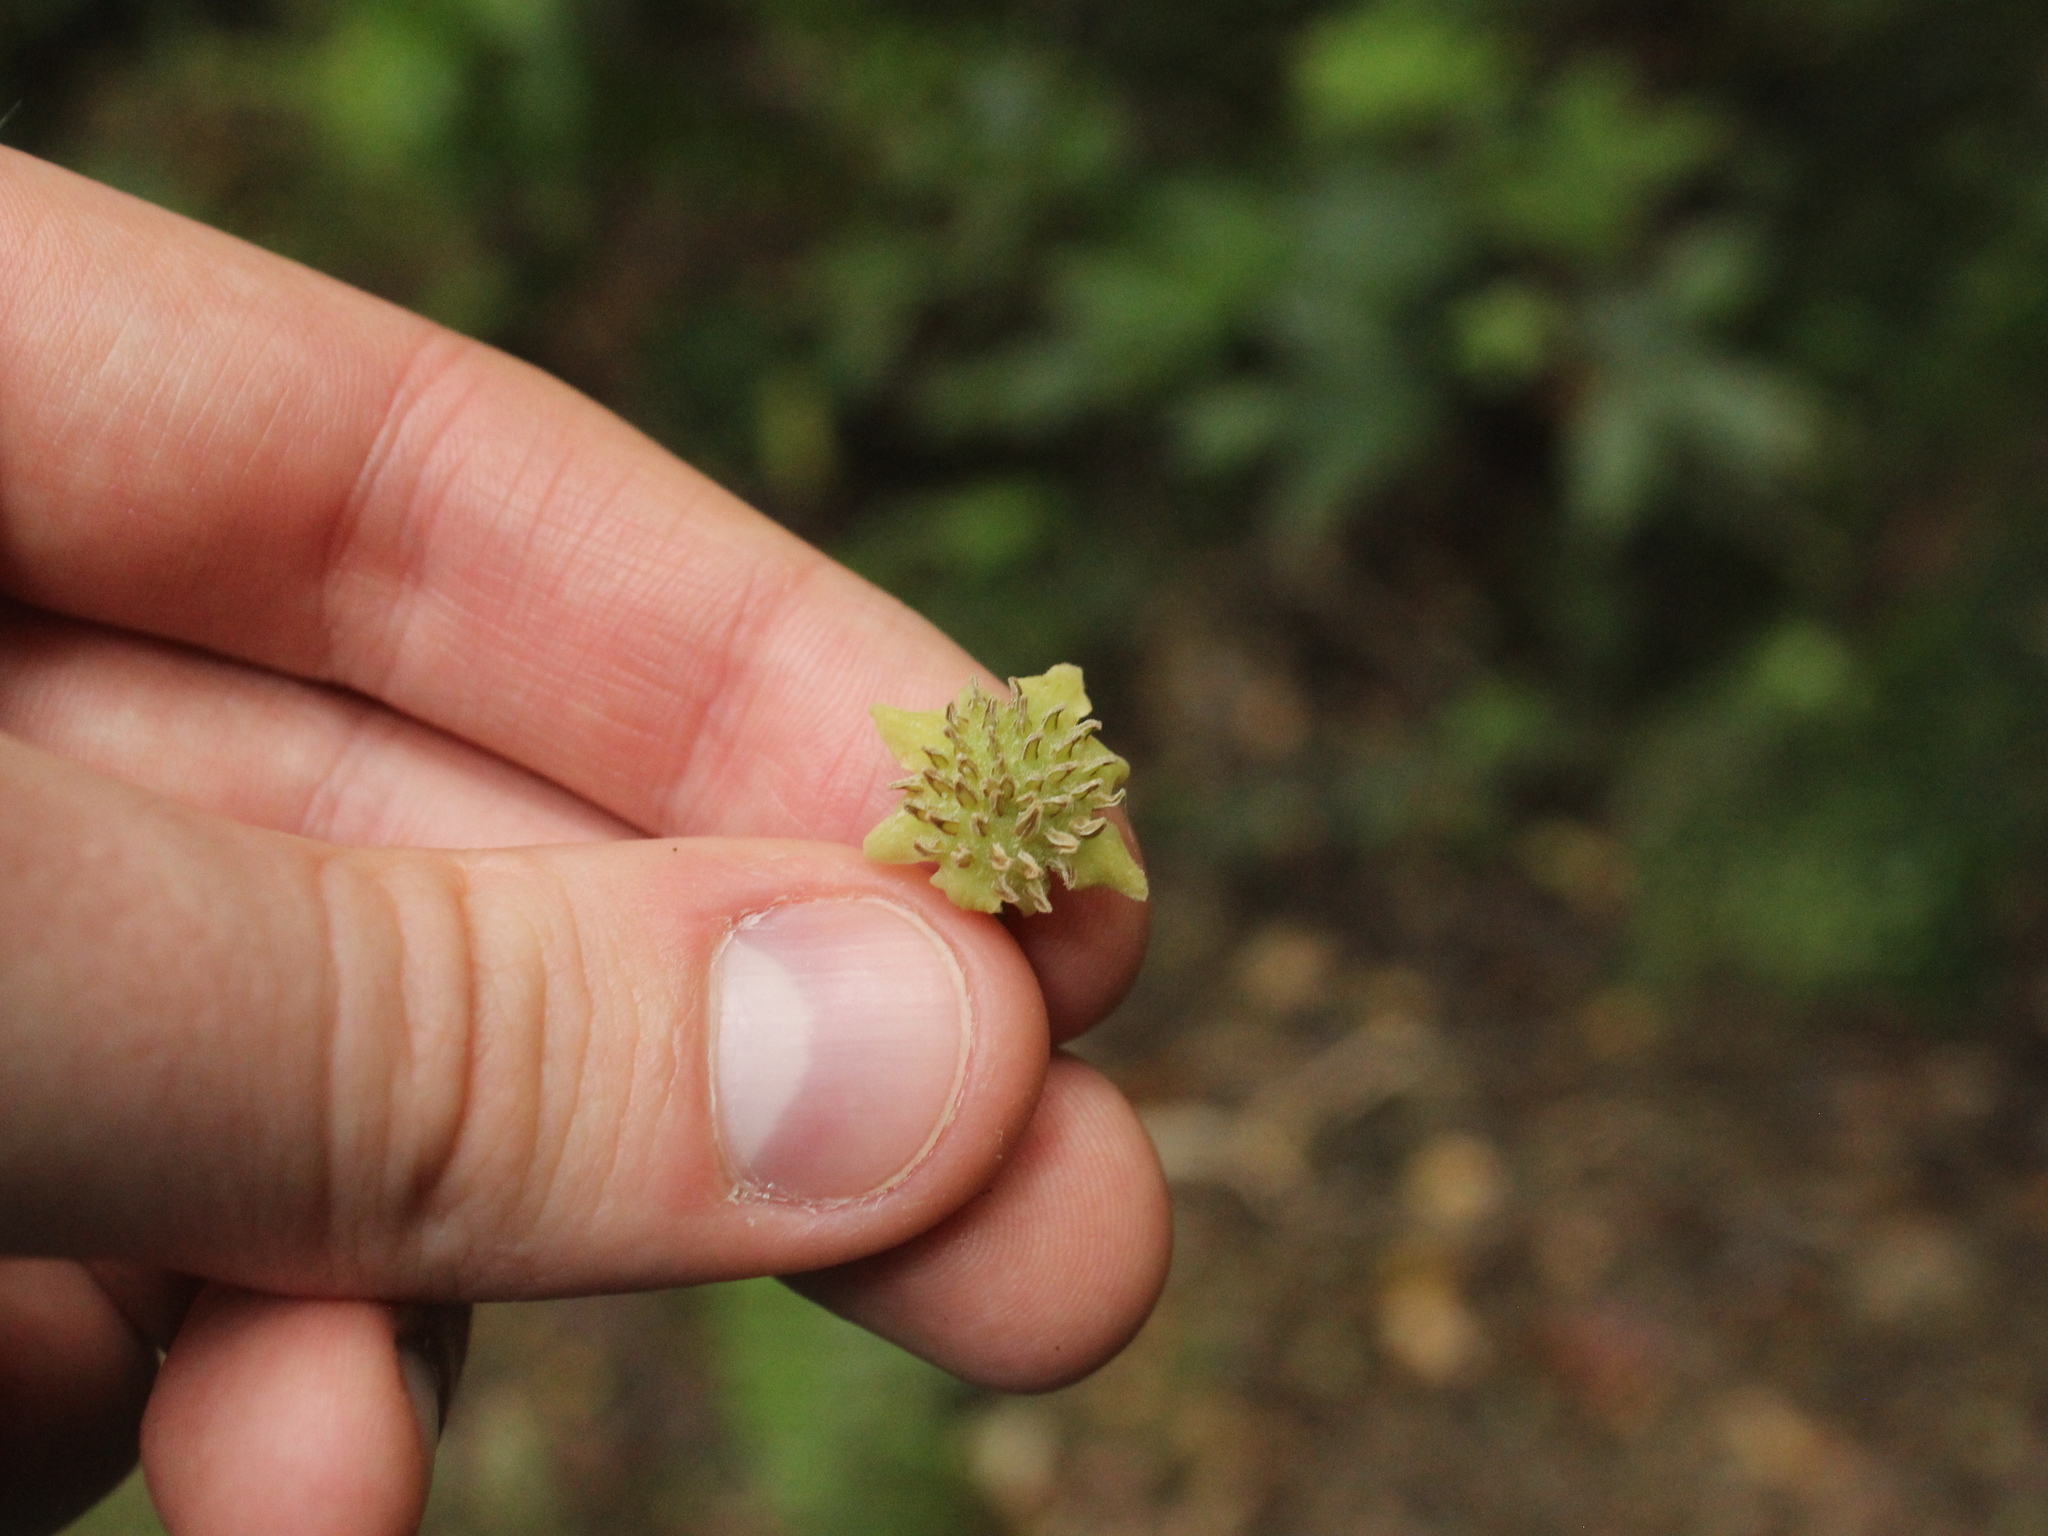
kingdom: Plantae
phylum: Tracheophyta
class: Magnoliopsida
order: Laurales
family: Monimiaceae
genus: Hedycarya
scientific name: Hedycarya arborea
